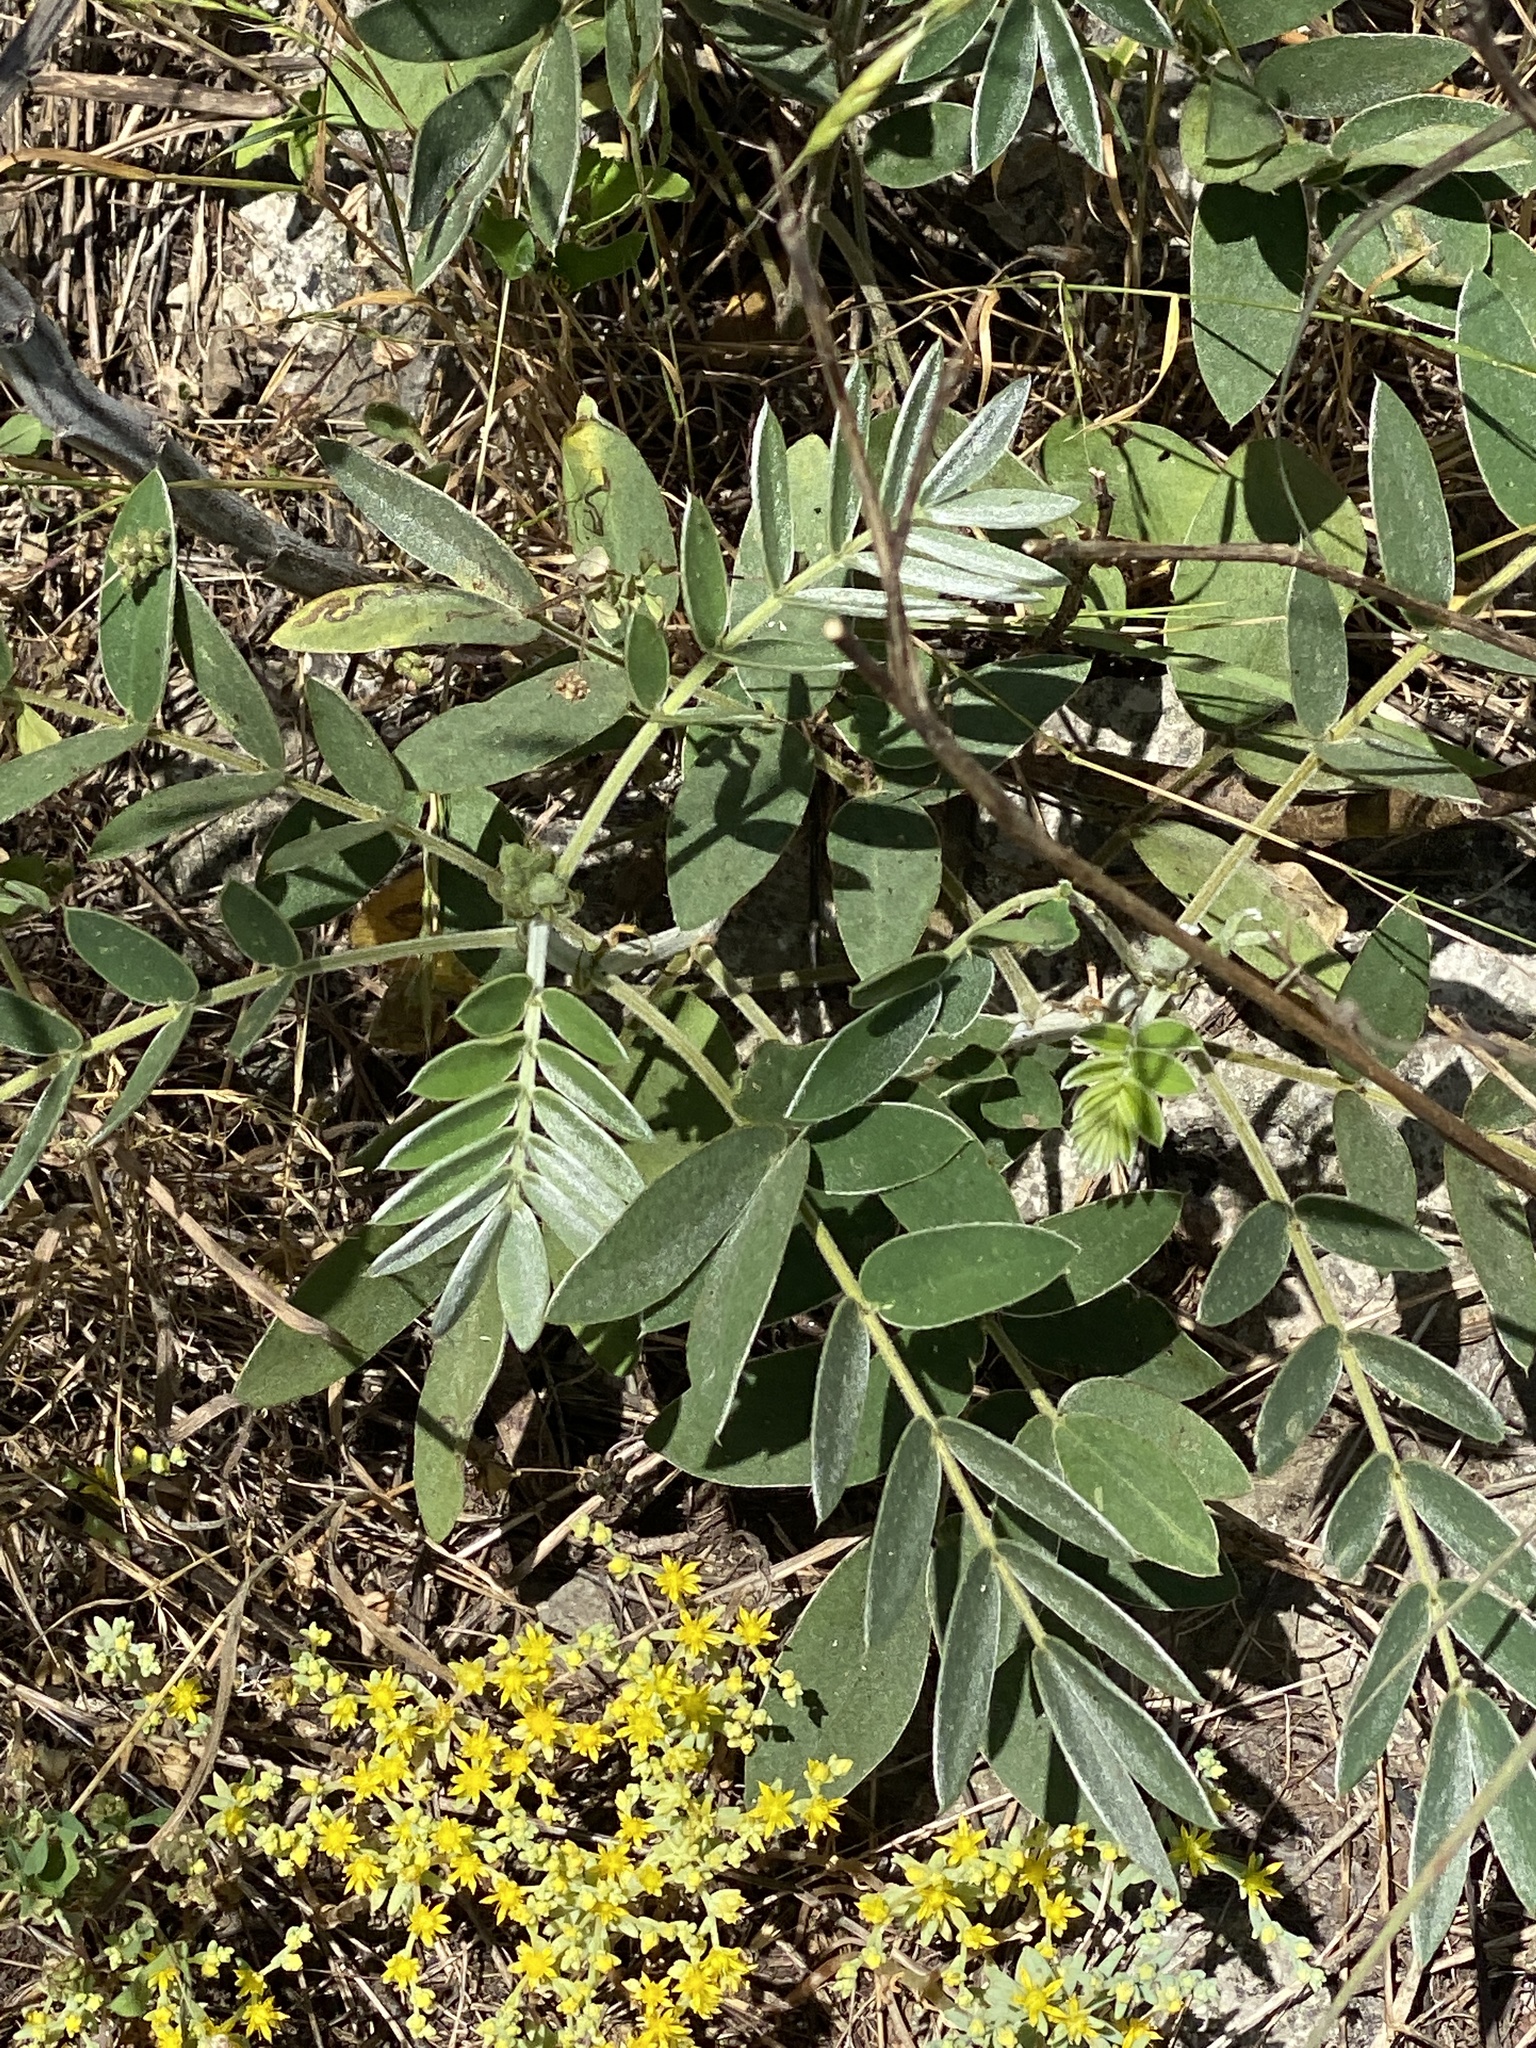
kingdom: Plantae
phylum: Tracheophyta
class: Magnoliopsida
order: Fabales
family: Fabaceae
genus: Senna
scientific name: Senna lindheimeriana
